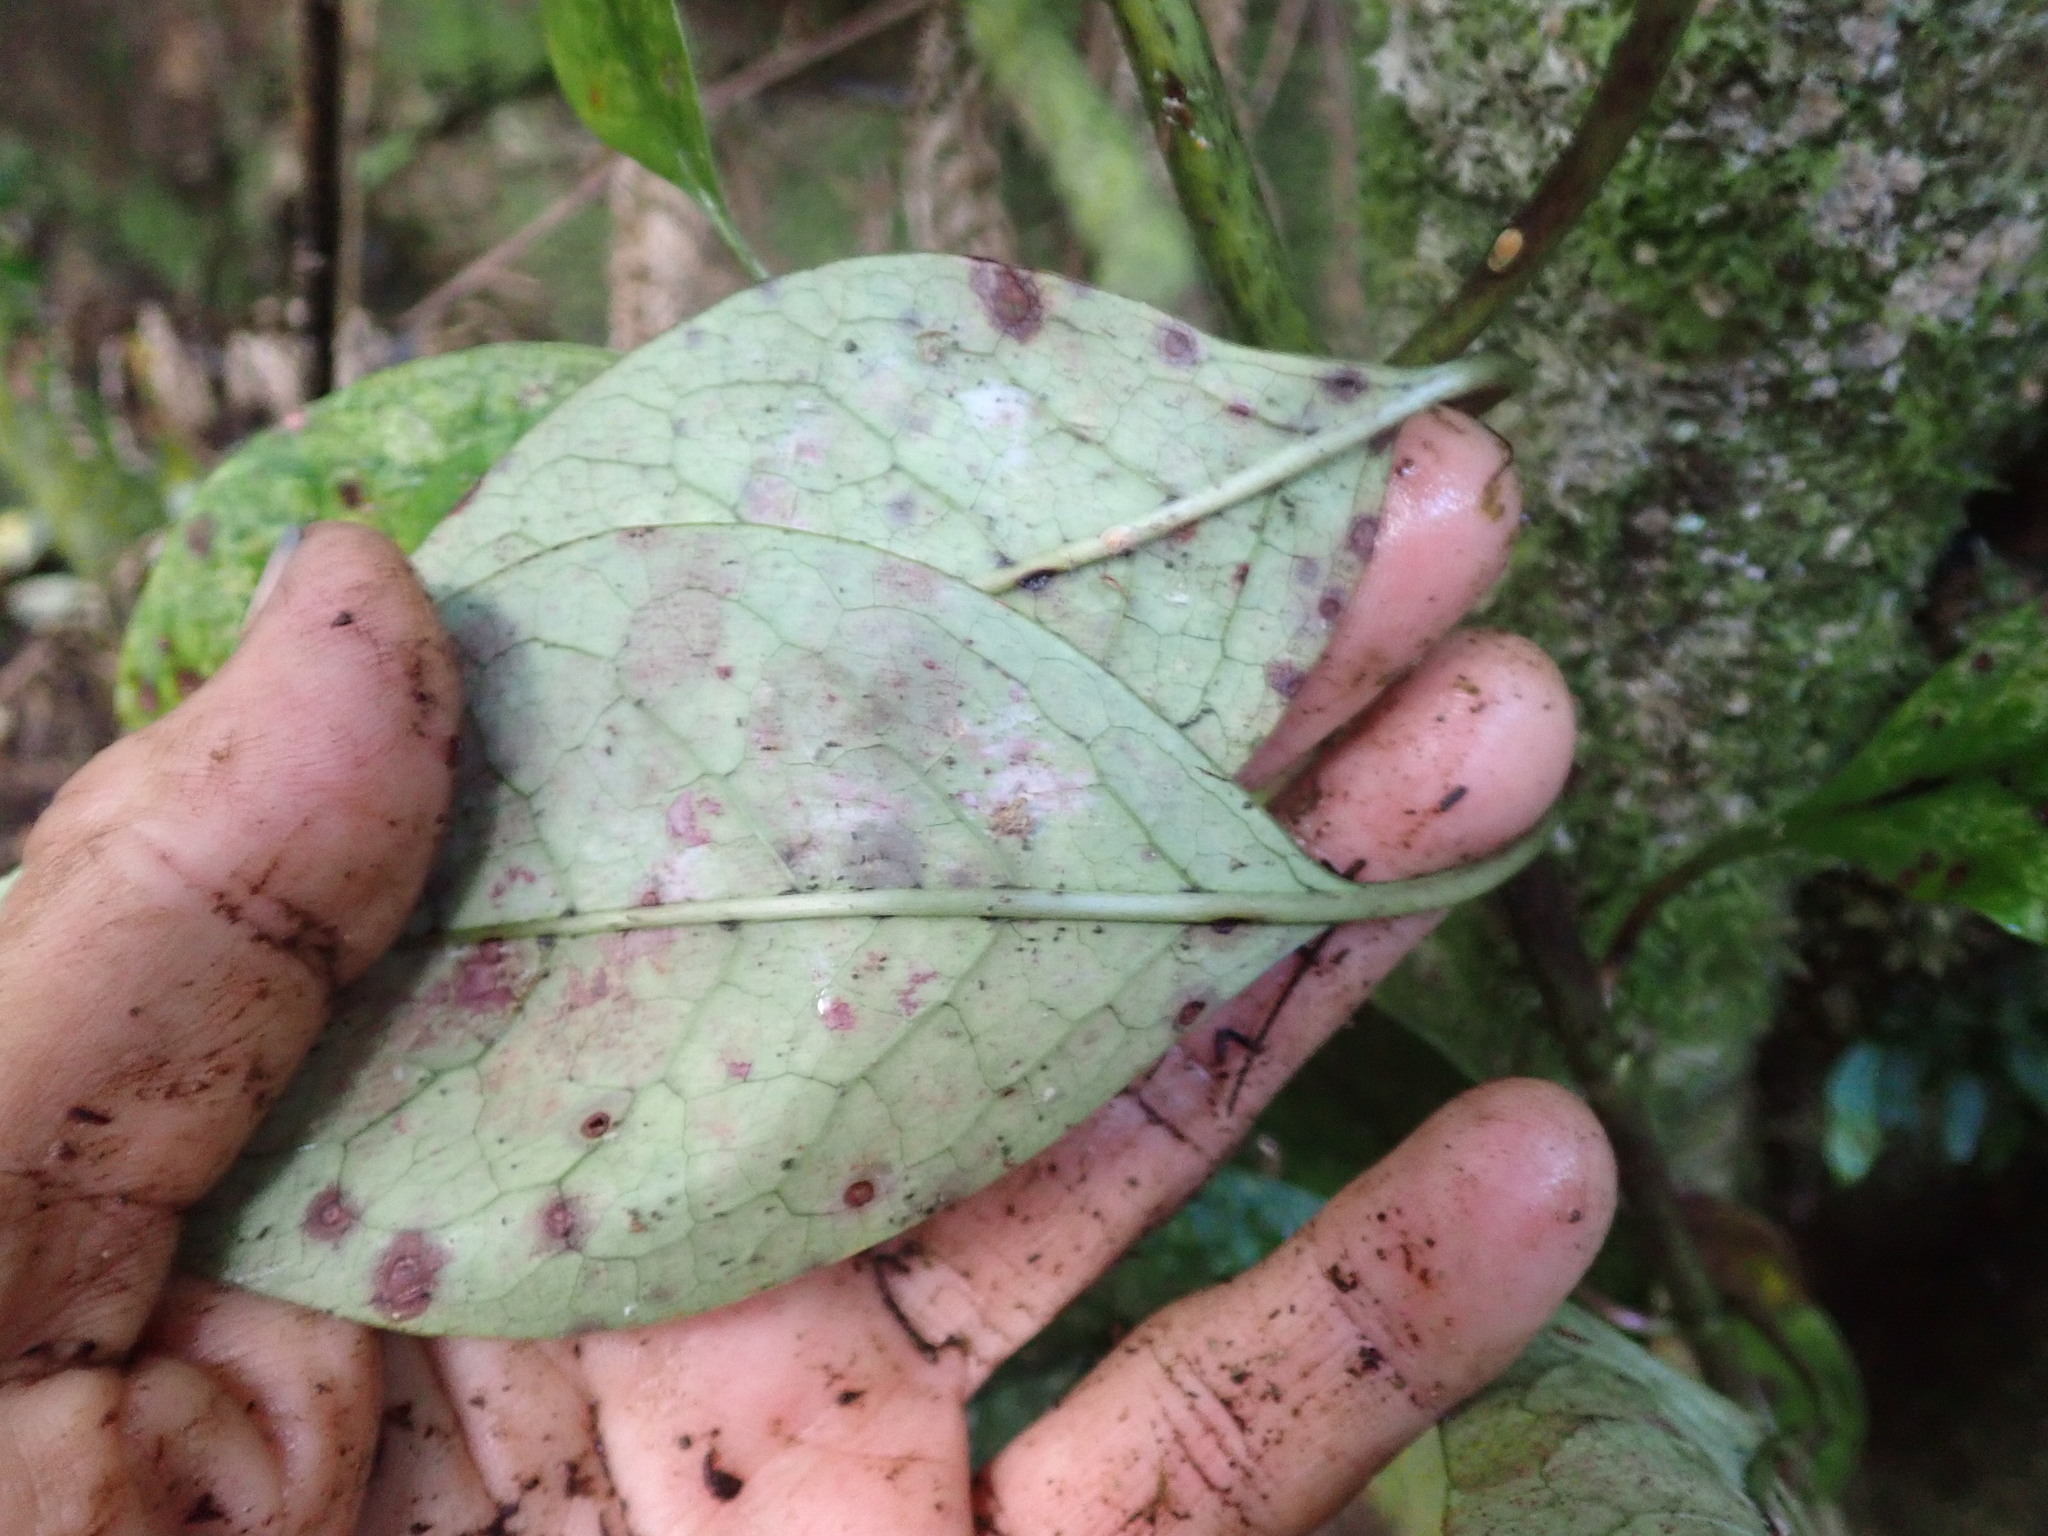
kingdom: Plantae
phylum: Tracheophyta
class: Magnoliopsida
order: Gentianales
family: Rubiaceae
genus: Coprosma
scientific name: Coprosma autumnalis
